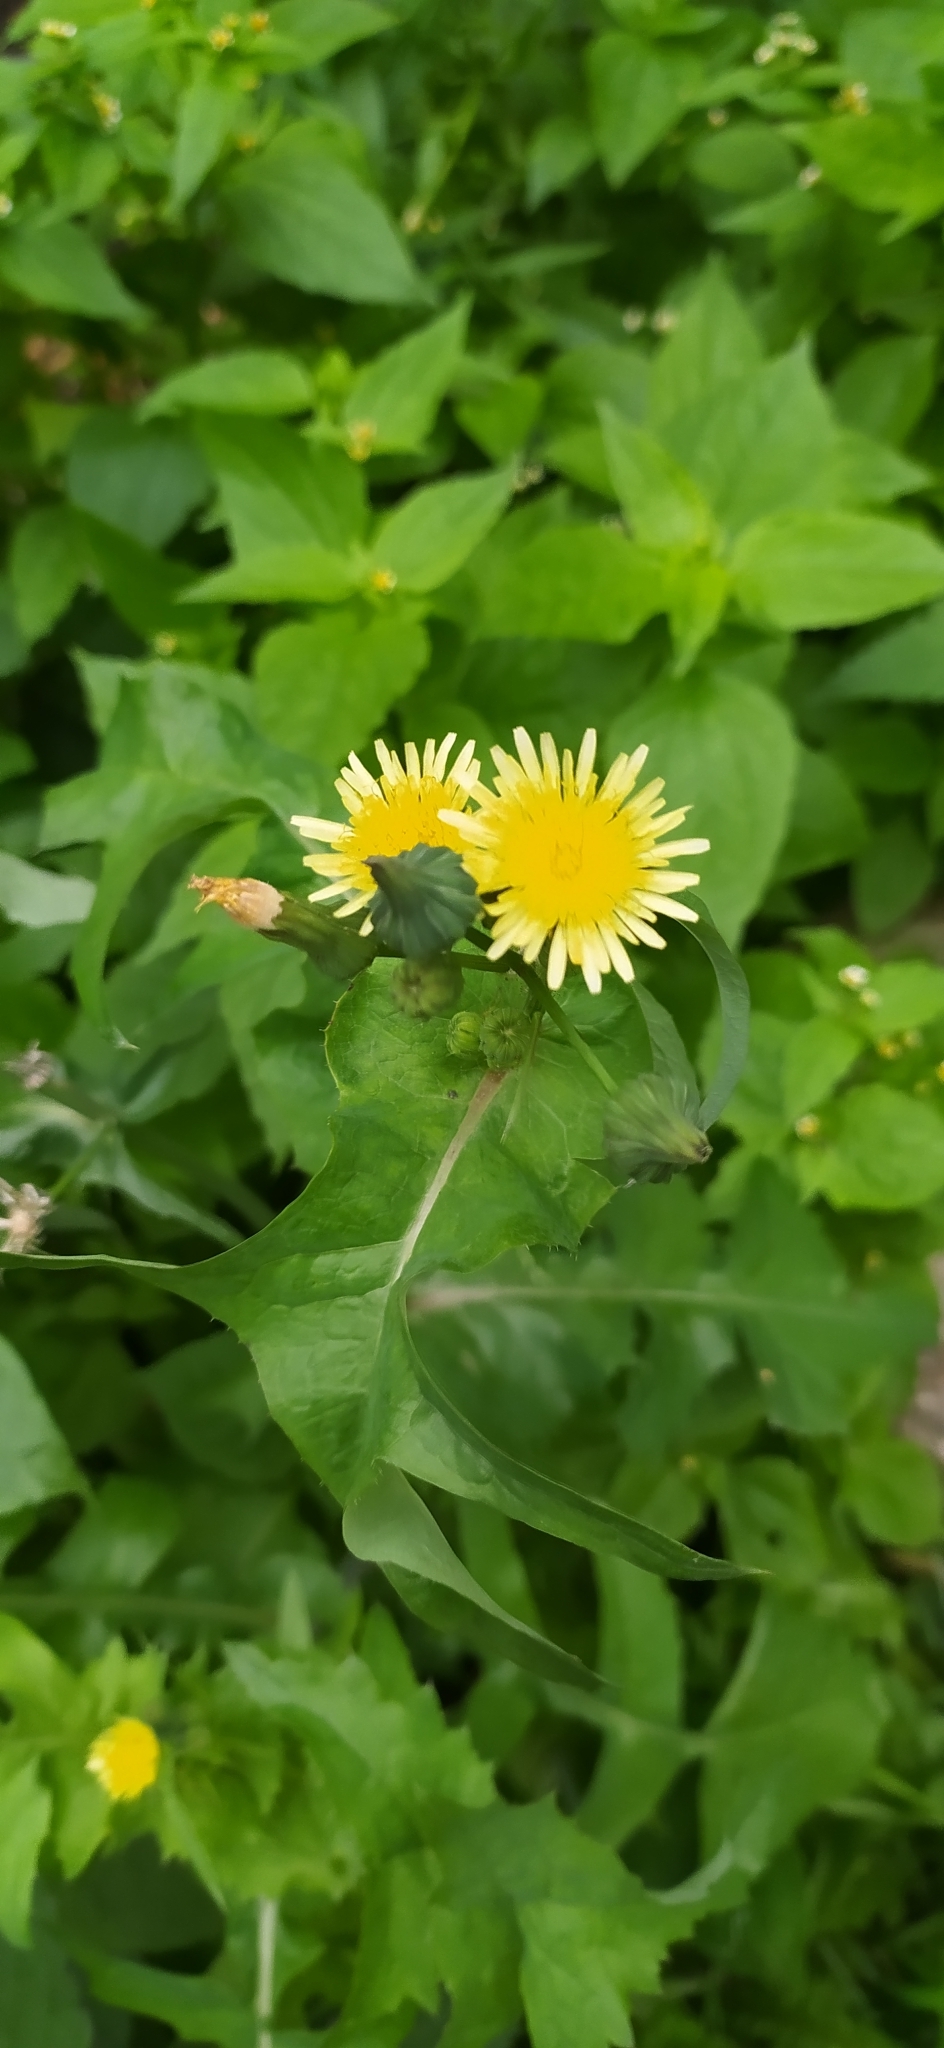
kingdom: Plantae
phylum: Tracheophyta
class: Magnoliopsida
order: Asterales
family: Asteraceae
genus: Sonchus
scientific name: Sonchus oleraceus
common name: Common sowthistle
